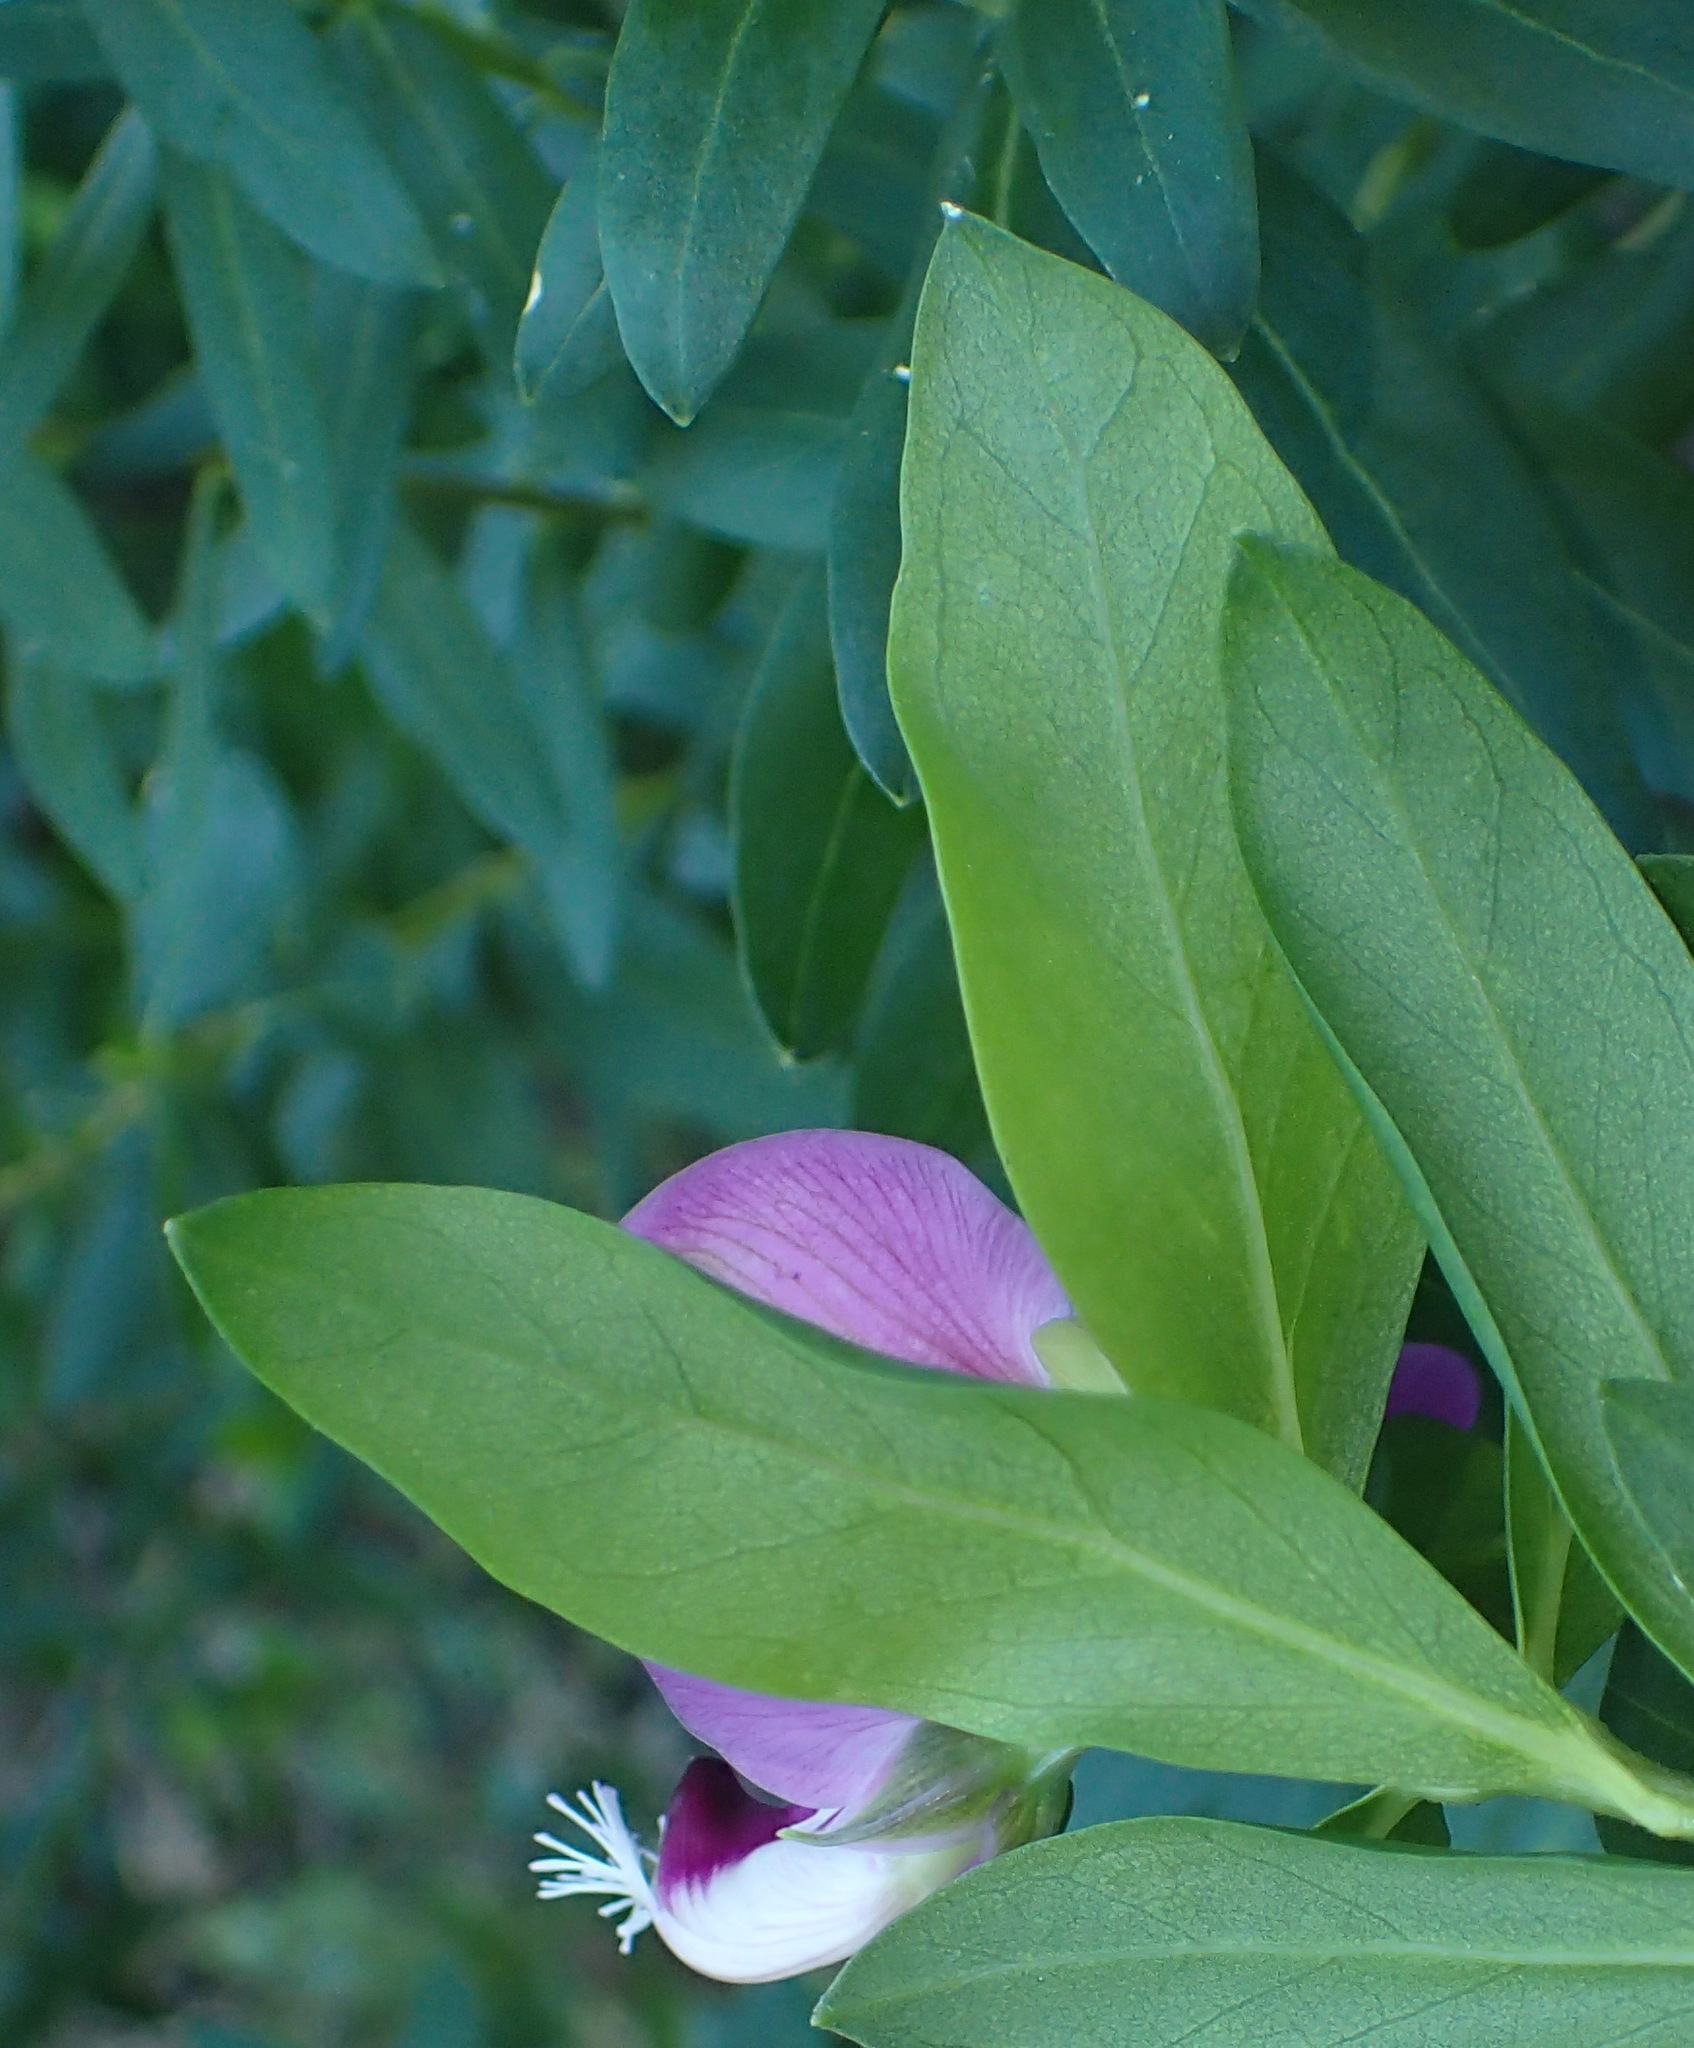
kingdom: Plantae
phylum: Tracheophyta
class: Magnoliopsida
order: Fabales
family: Polygalaceae
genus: Polygala
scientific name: Polygala myrtifolia
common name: Myrtle-leaf milkwort
